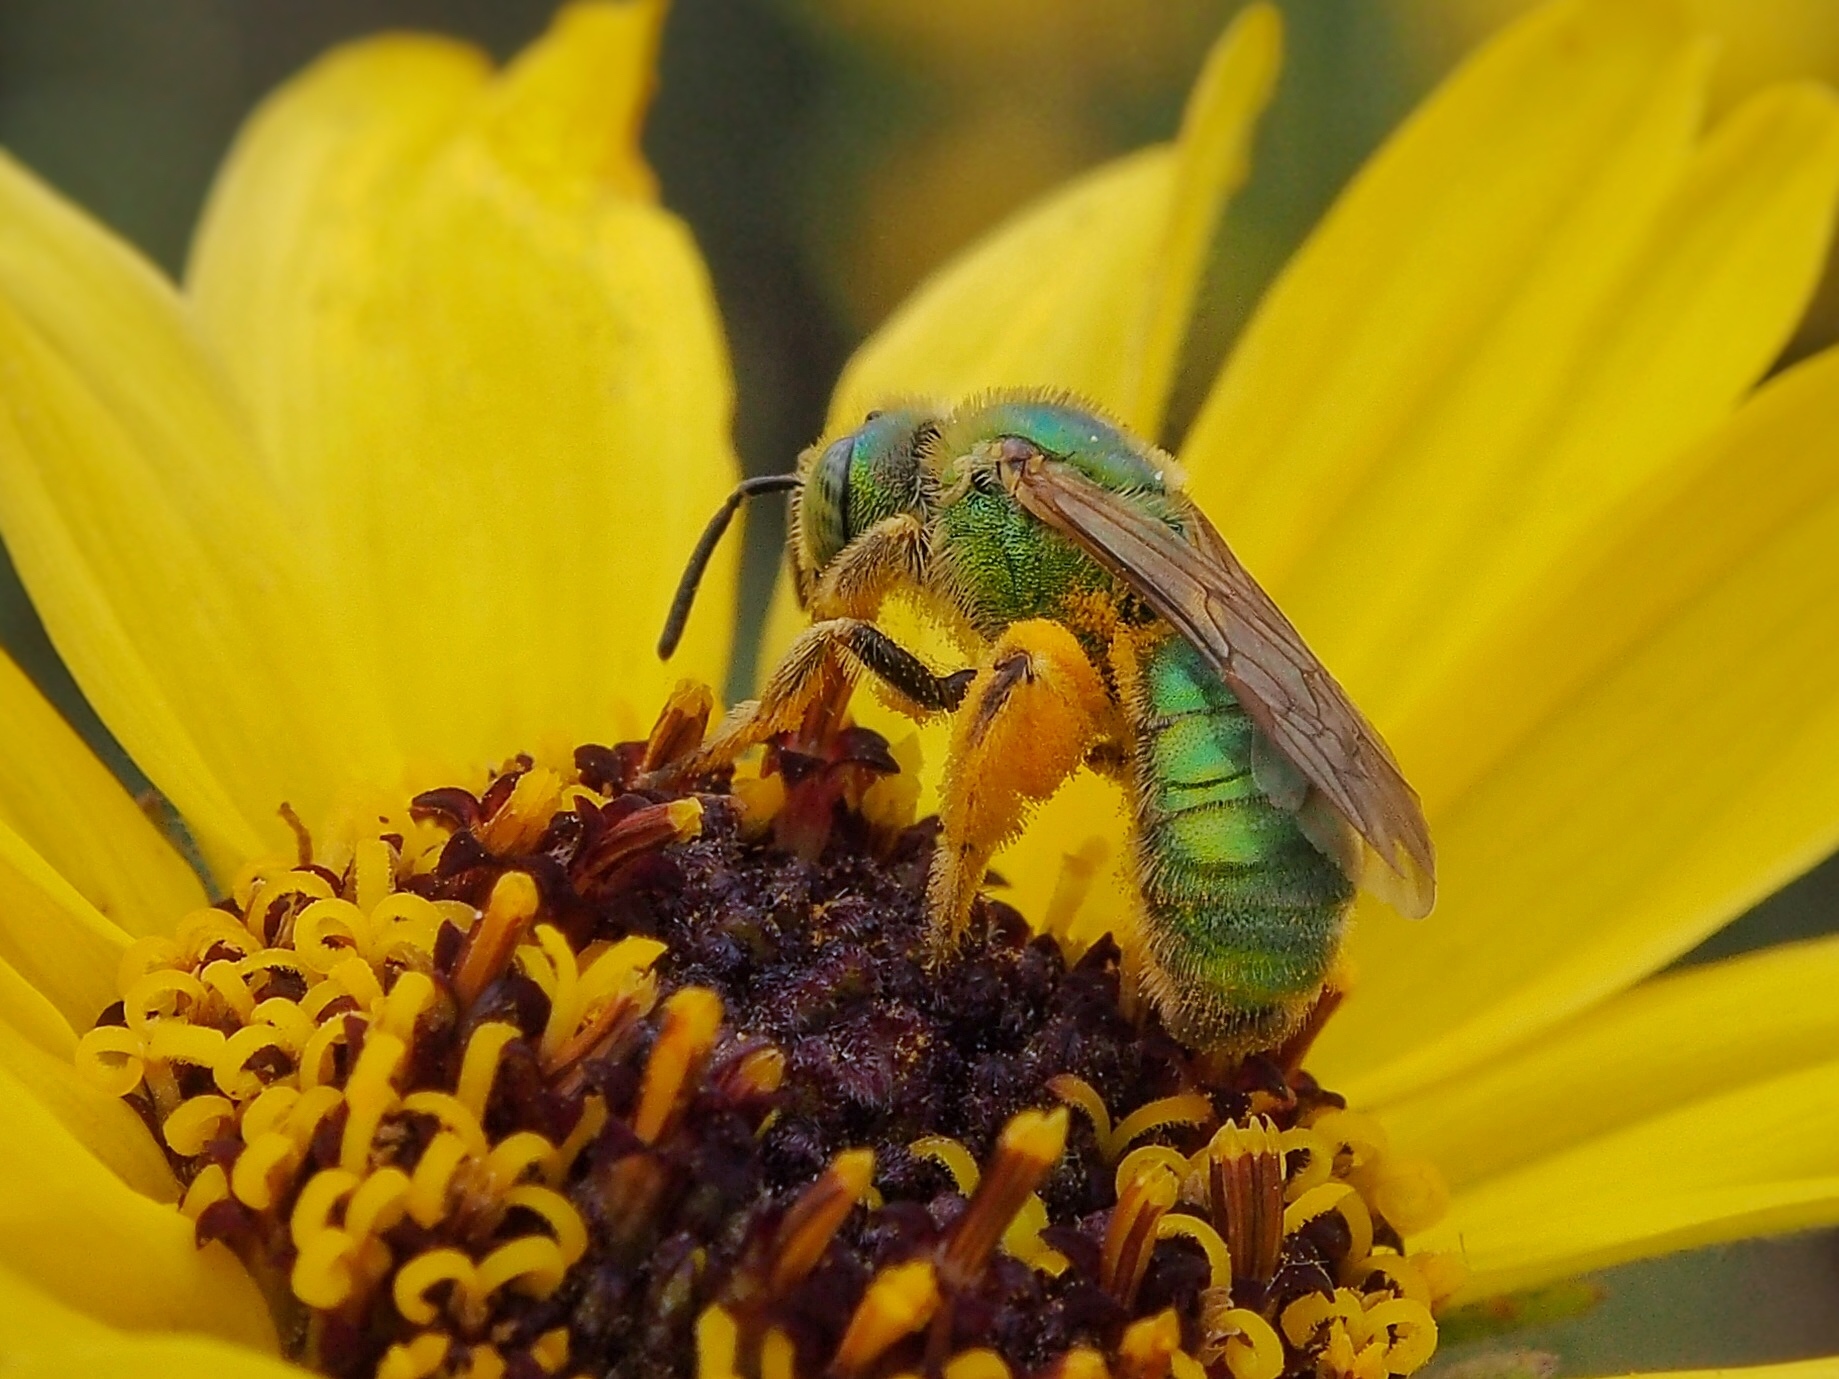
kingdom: Animalia
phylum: Arthropoda
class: Insecta
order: Hymenoptera
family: Halictidae
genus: Agapostemon
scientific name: Agapostemon texanus
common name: Texas striped sweat bee
